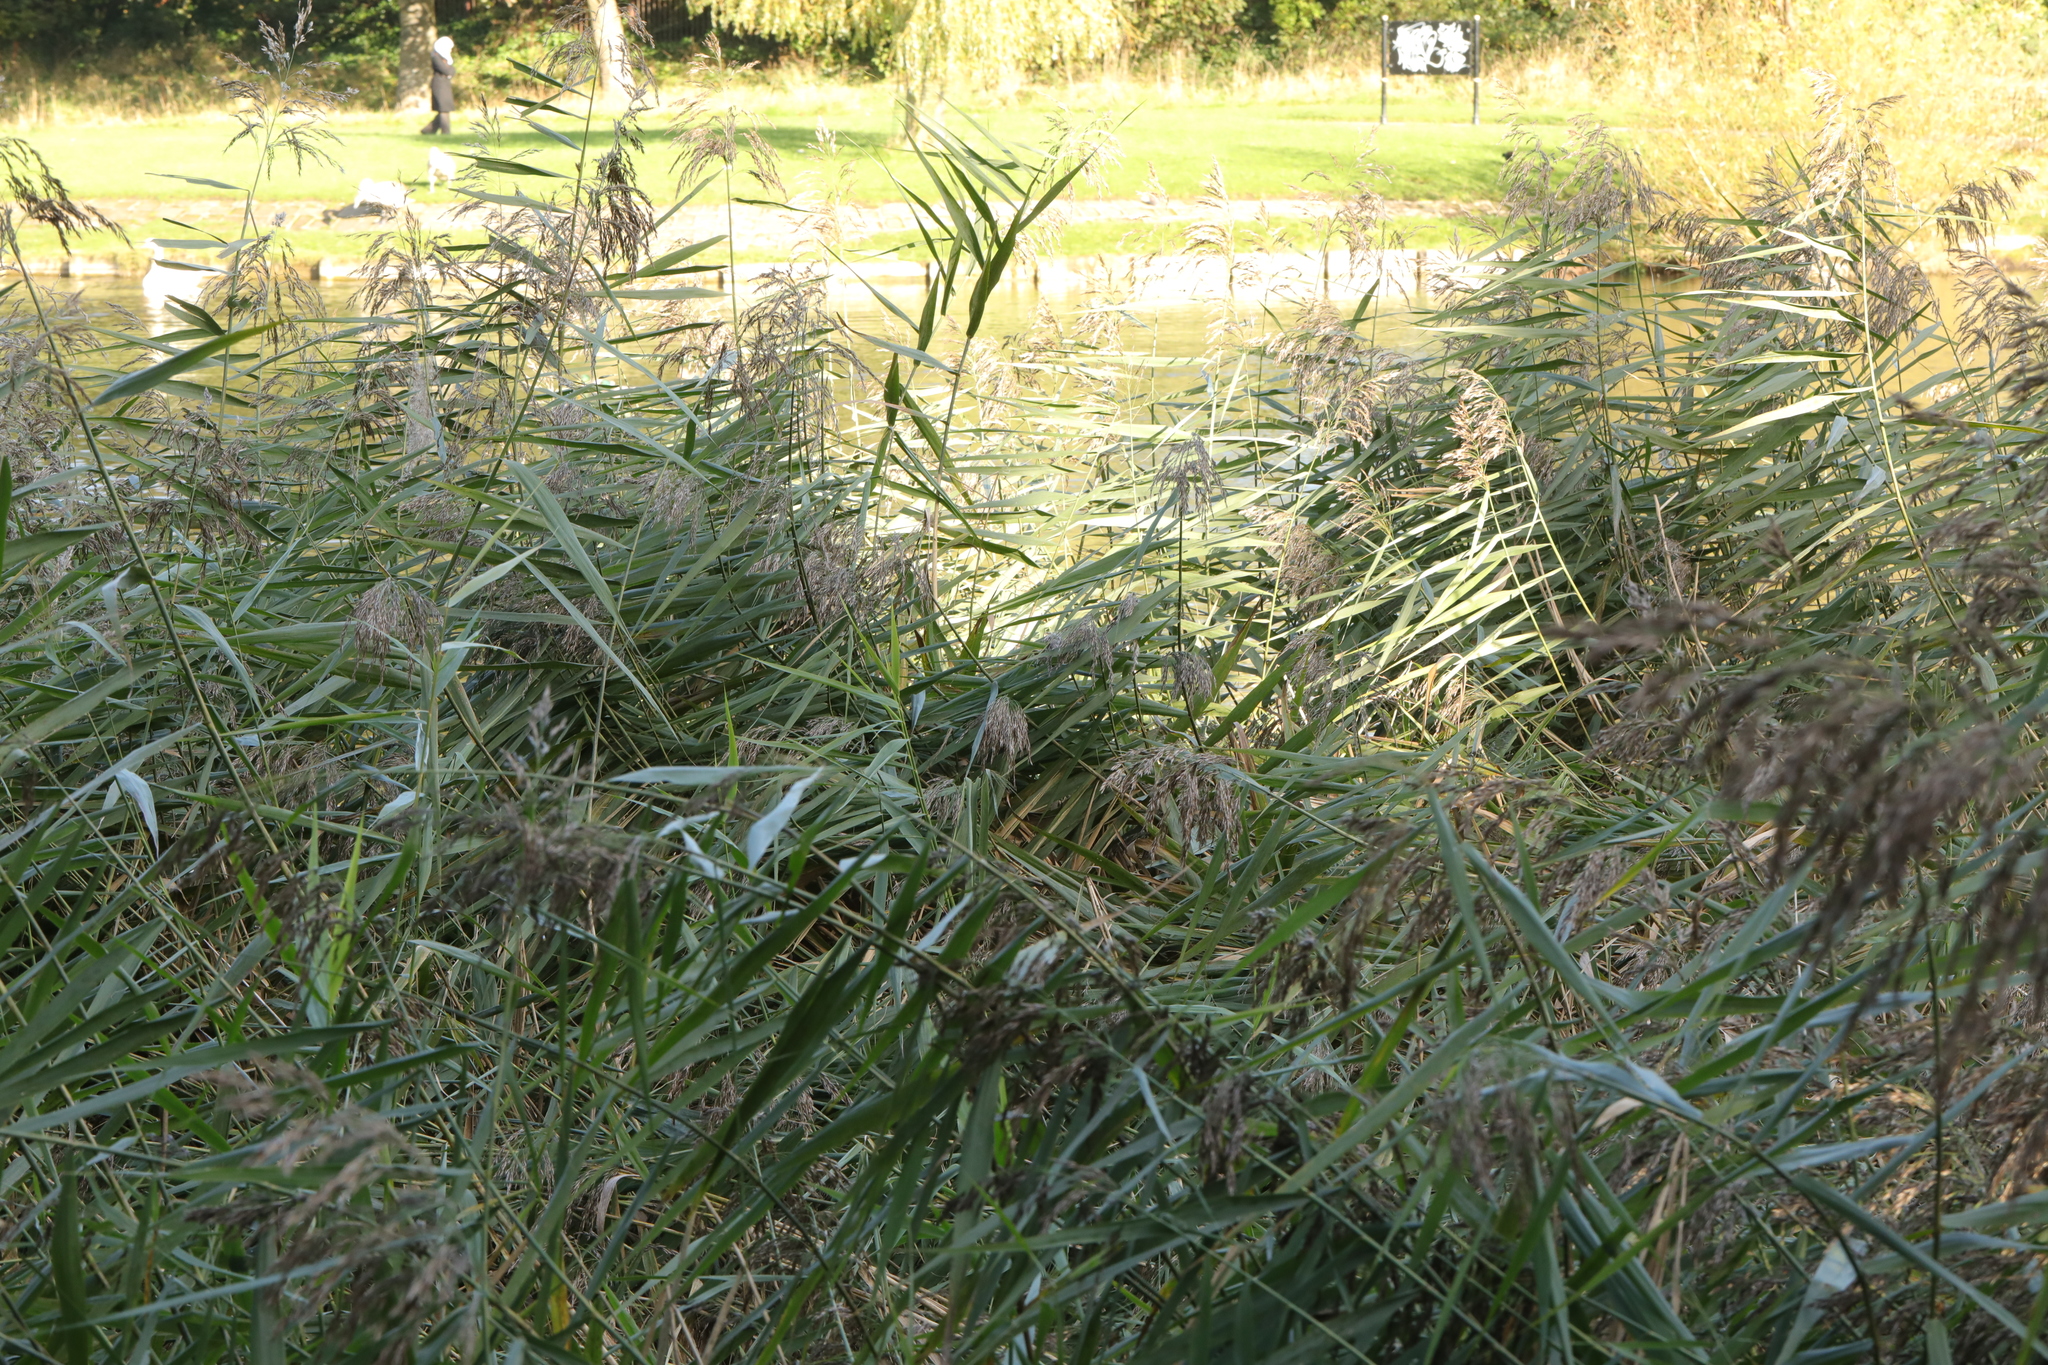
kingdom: Plantae
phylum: Tracheophyta
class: Liliopsida
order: Poales
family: Poaceae
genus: Phragmites
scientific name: Phragmites australis
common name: Common reed
